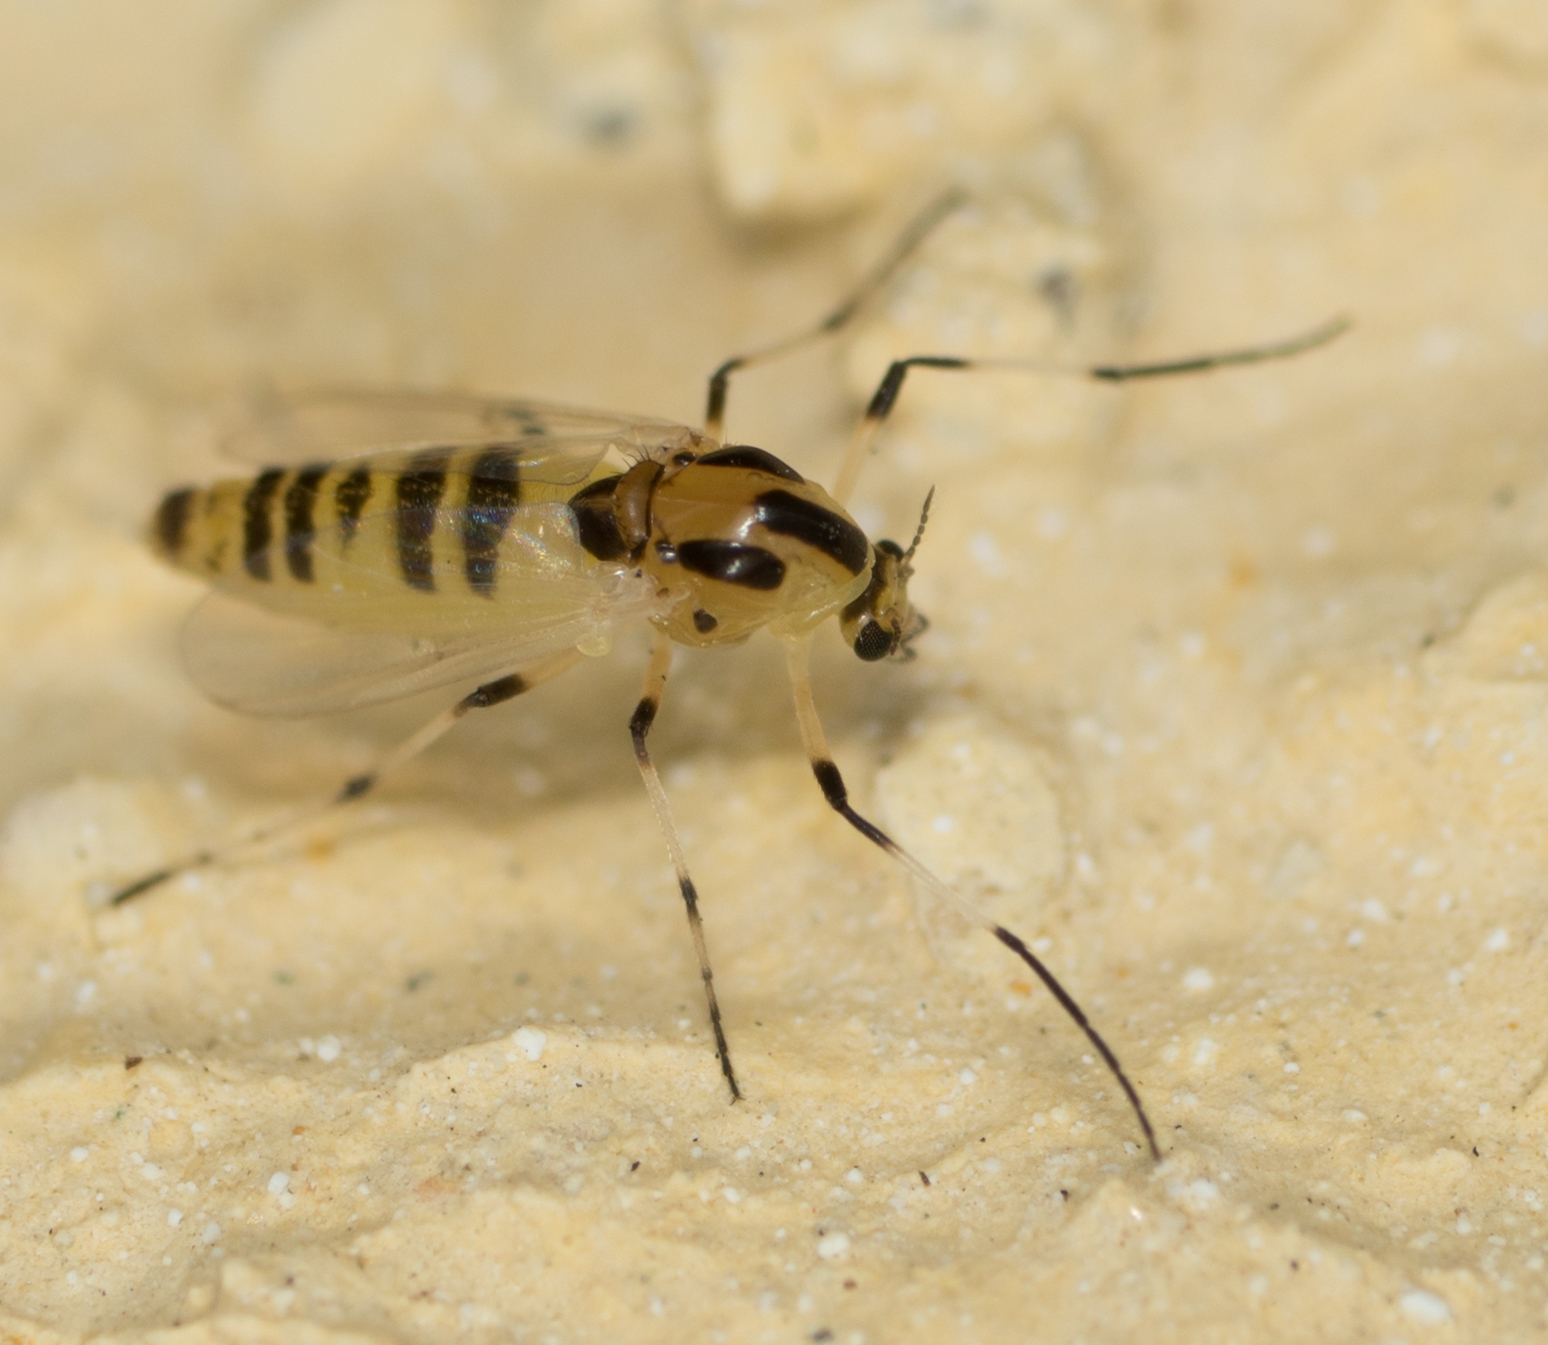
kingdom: Animalia
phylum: Arthropoda
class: Insecta
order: Diptera
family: Chironomidae
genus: Cricotopus
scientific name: Cricotopus
